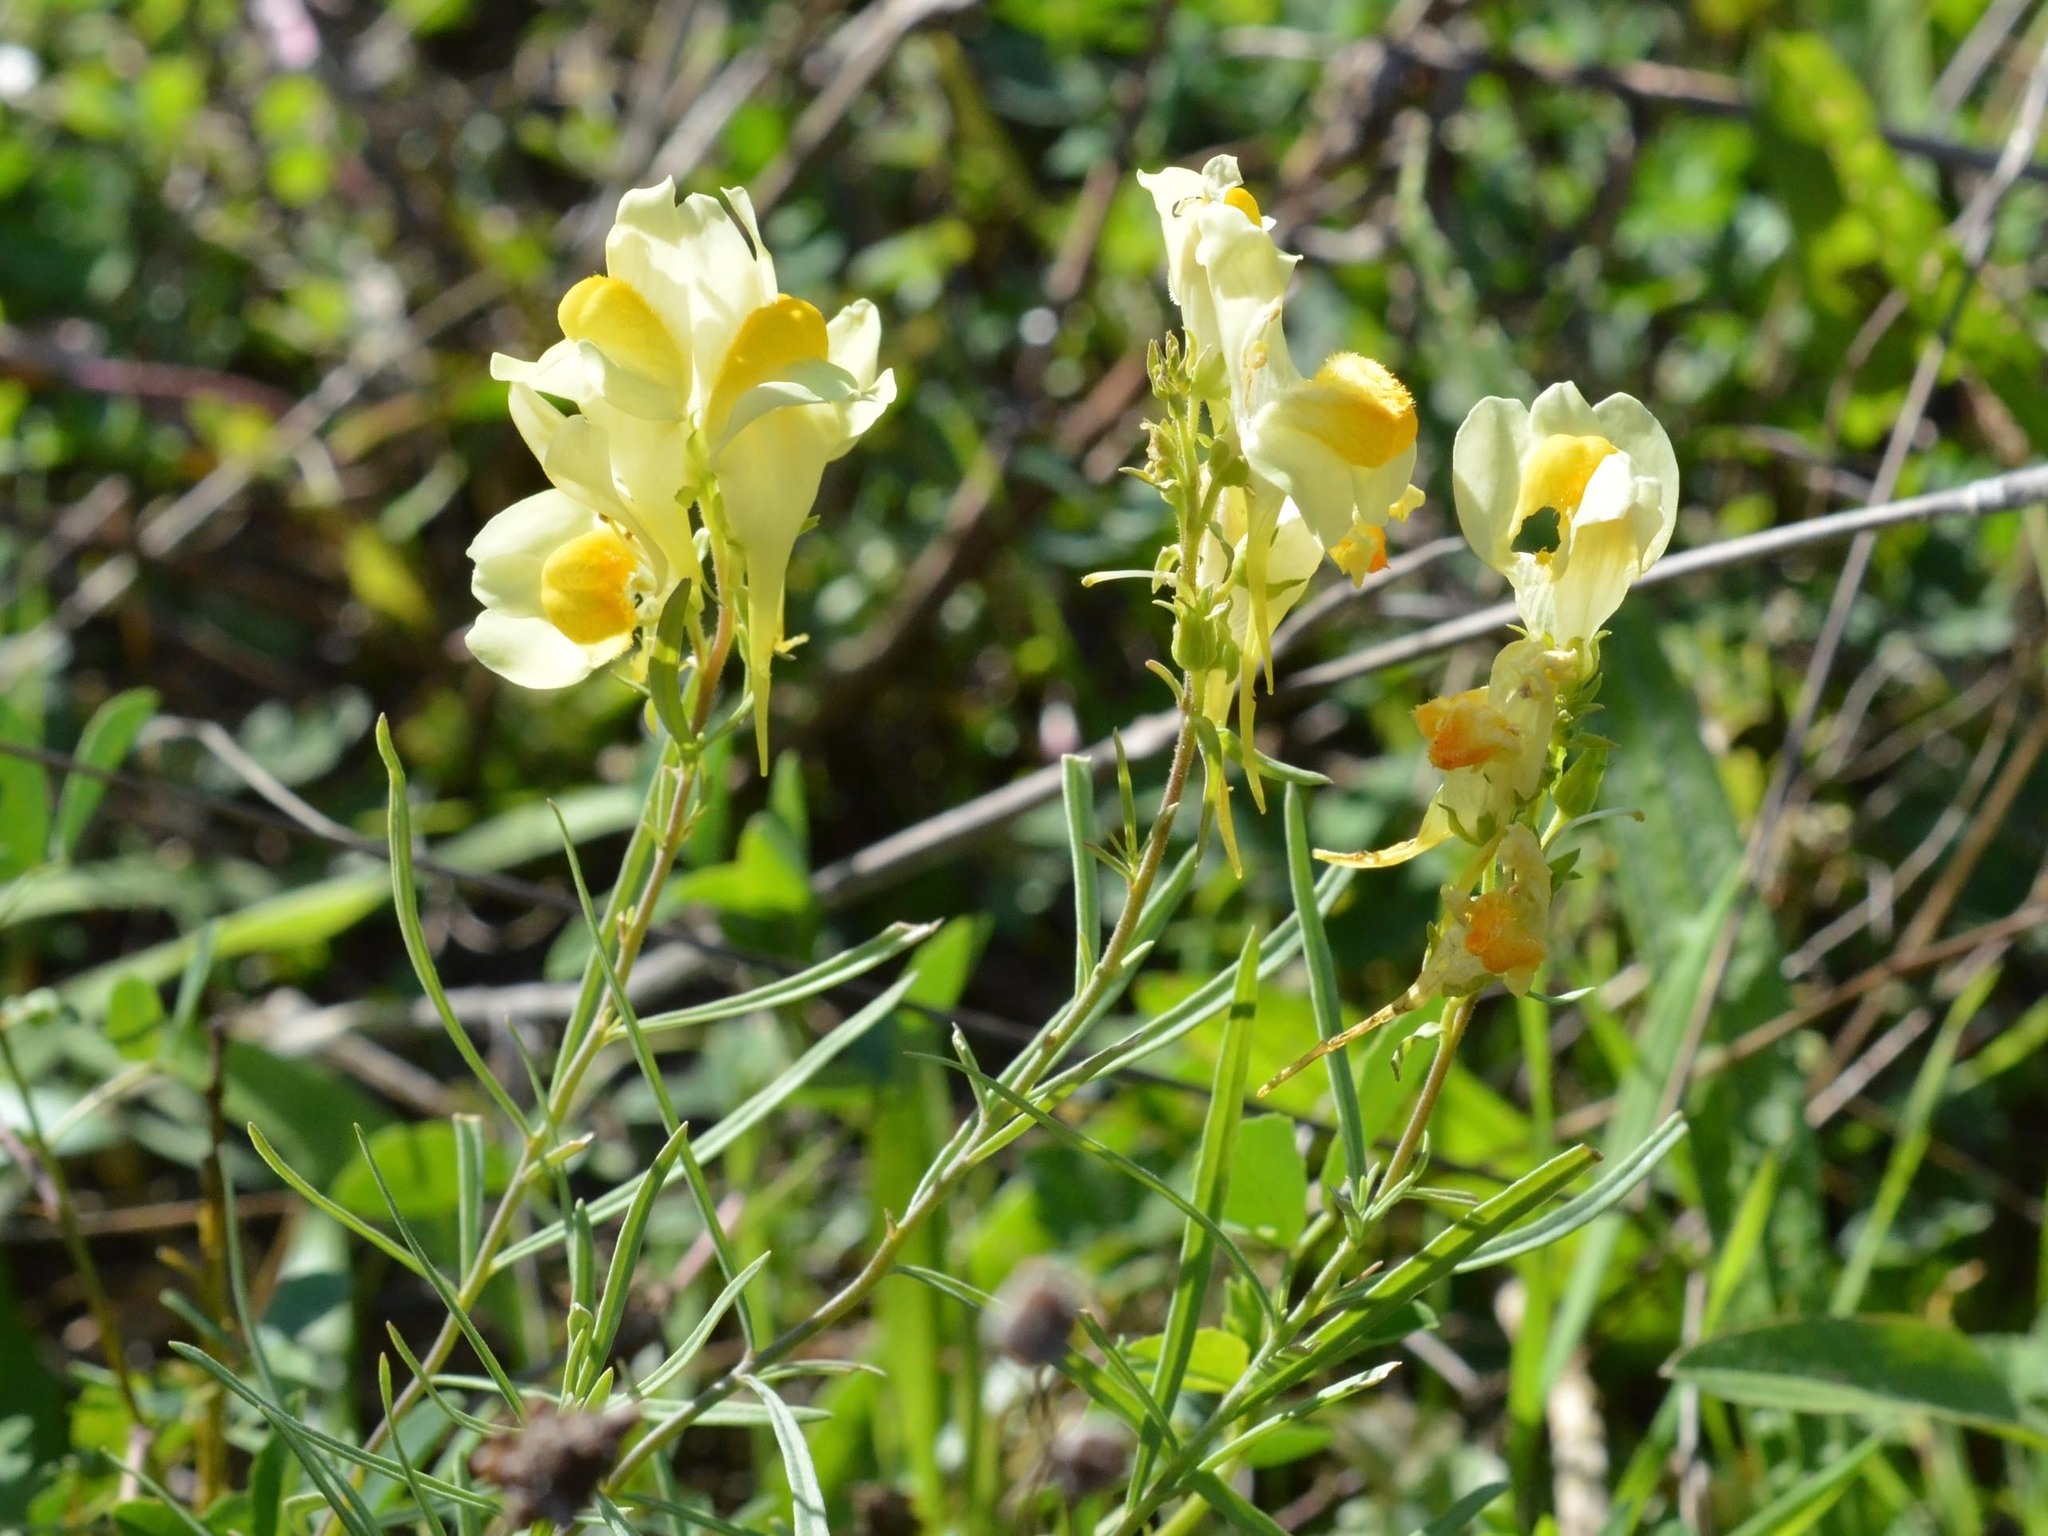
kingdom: Plantae
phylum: Tracheophyta
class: Magnoliopsida
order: Lamiales
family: Plantaginaceae
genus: Linaria
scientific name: Linaria vulgaris
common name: Butter and eggs
